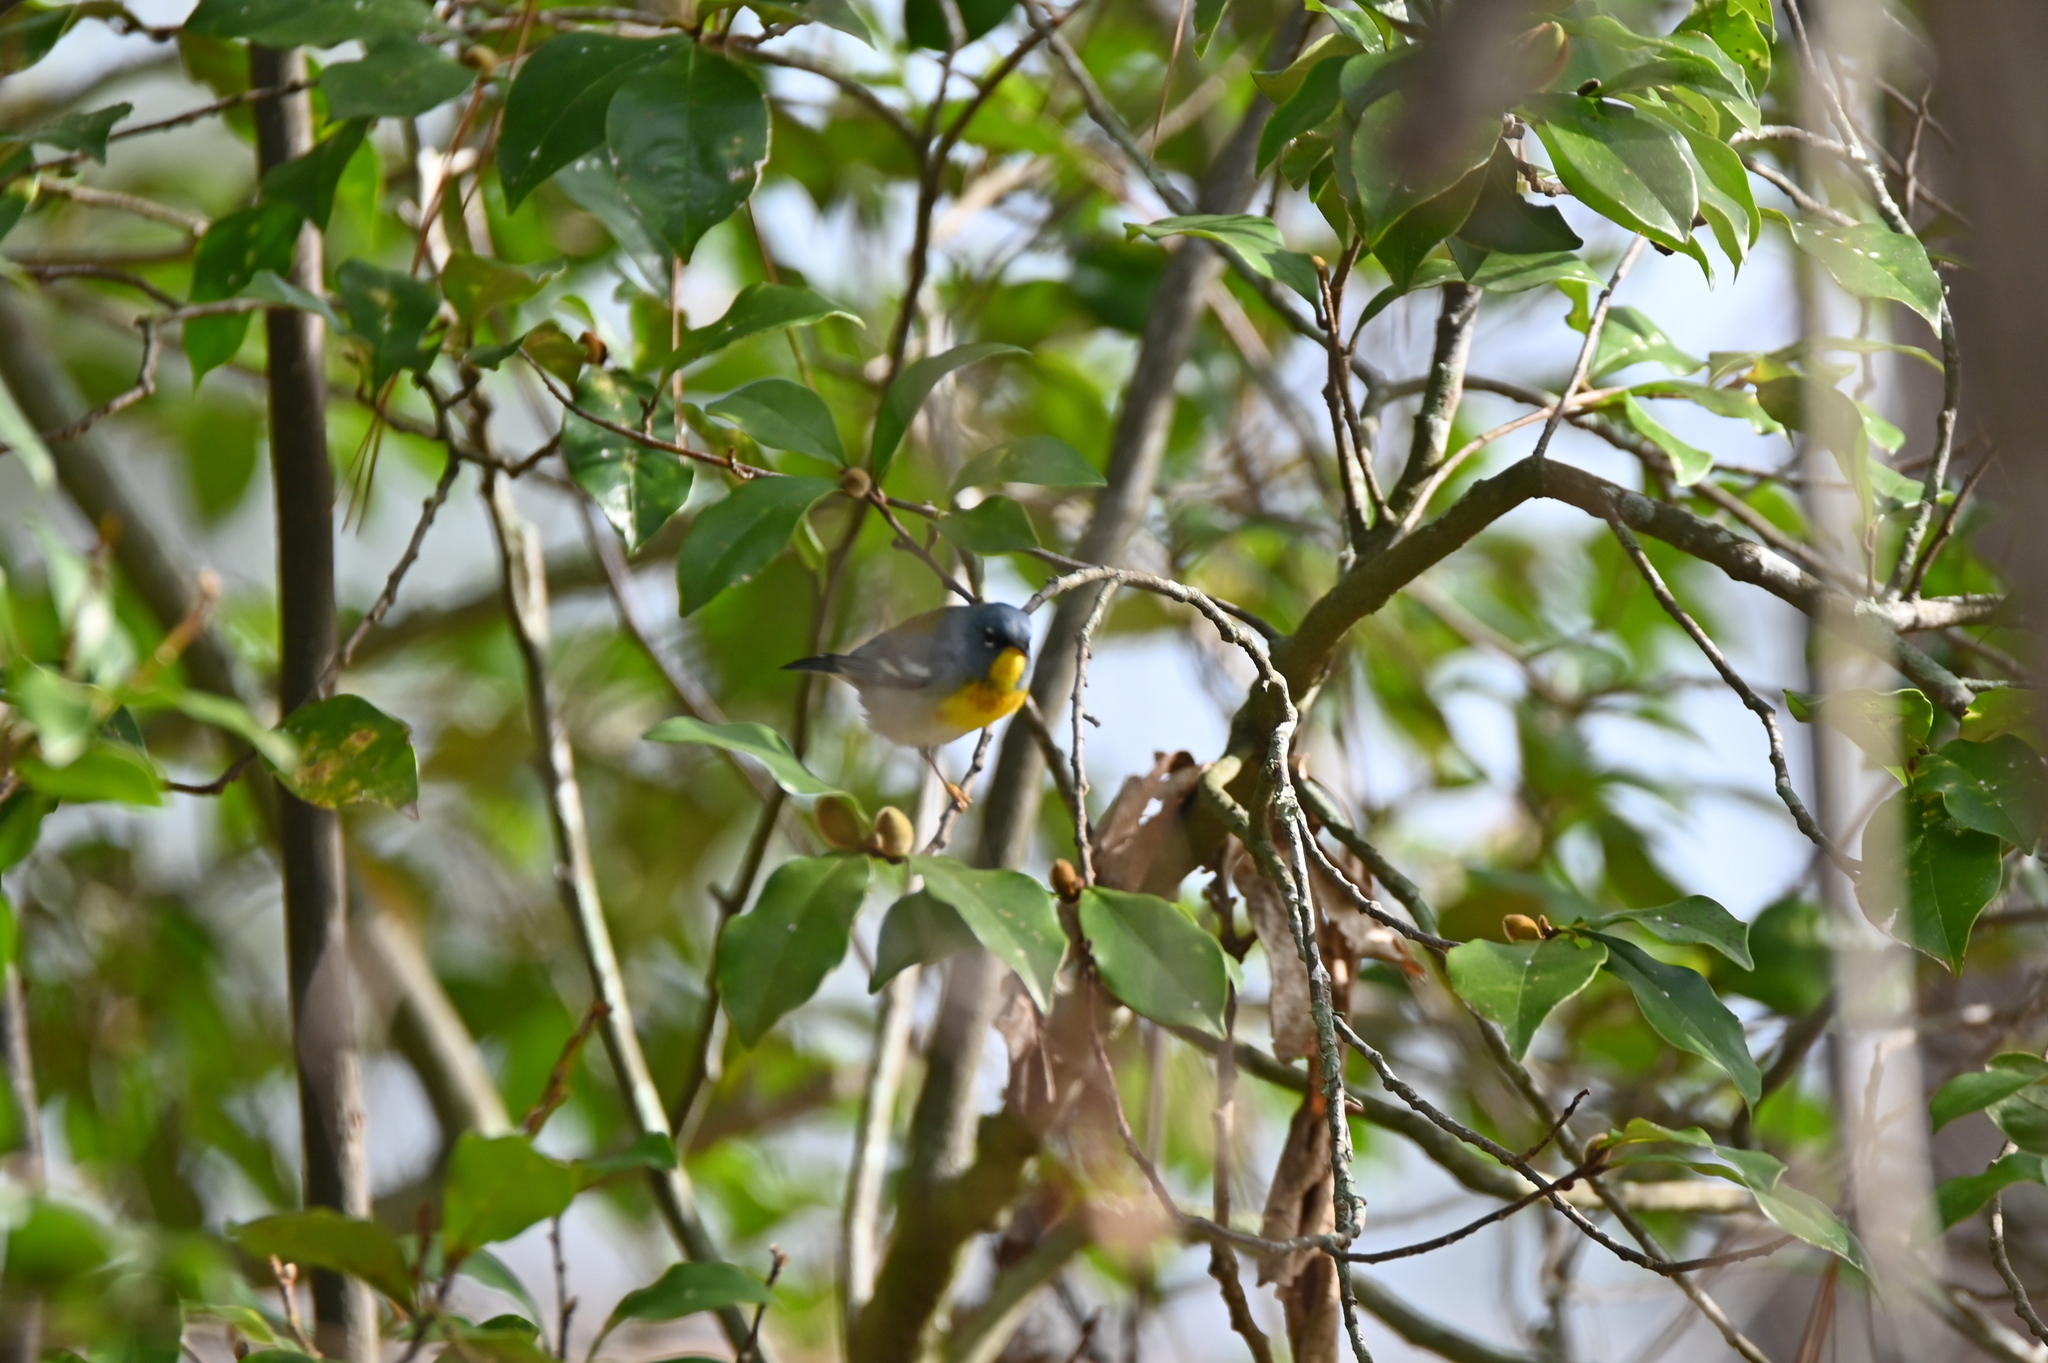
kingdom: Animalia
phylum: Chordata
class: Aves
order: Passeriformes
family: Parulidae
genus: Setophaga
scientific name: Setophaga americana
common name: Northern parula
